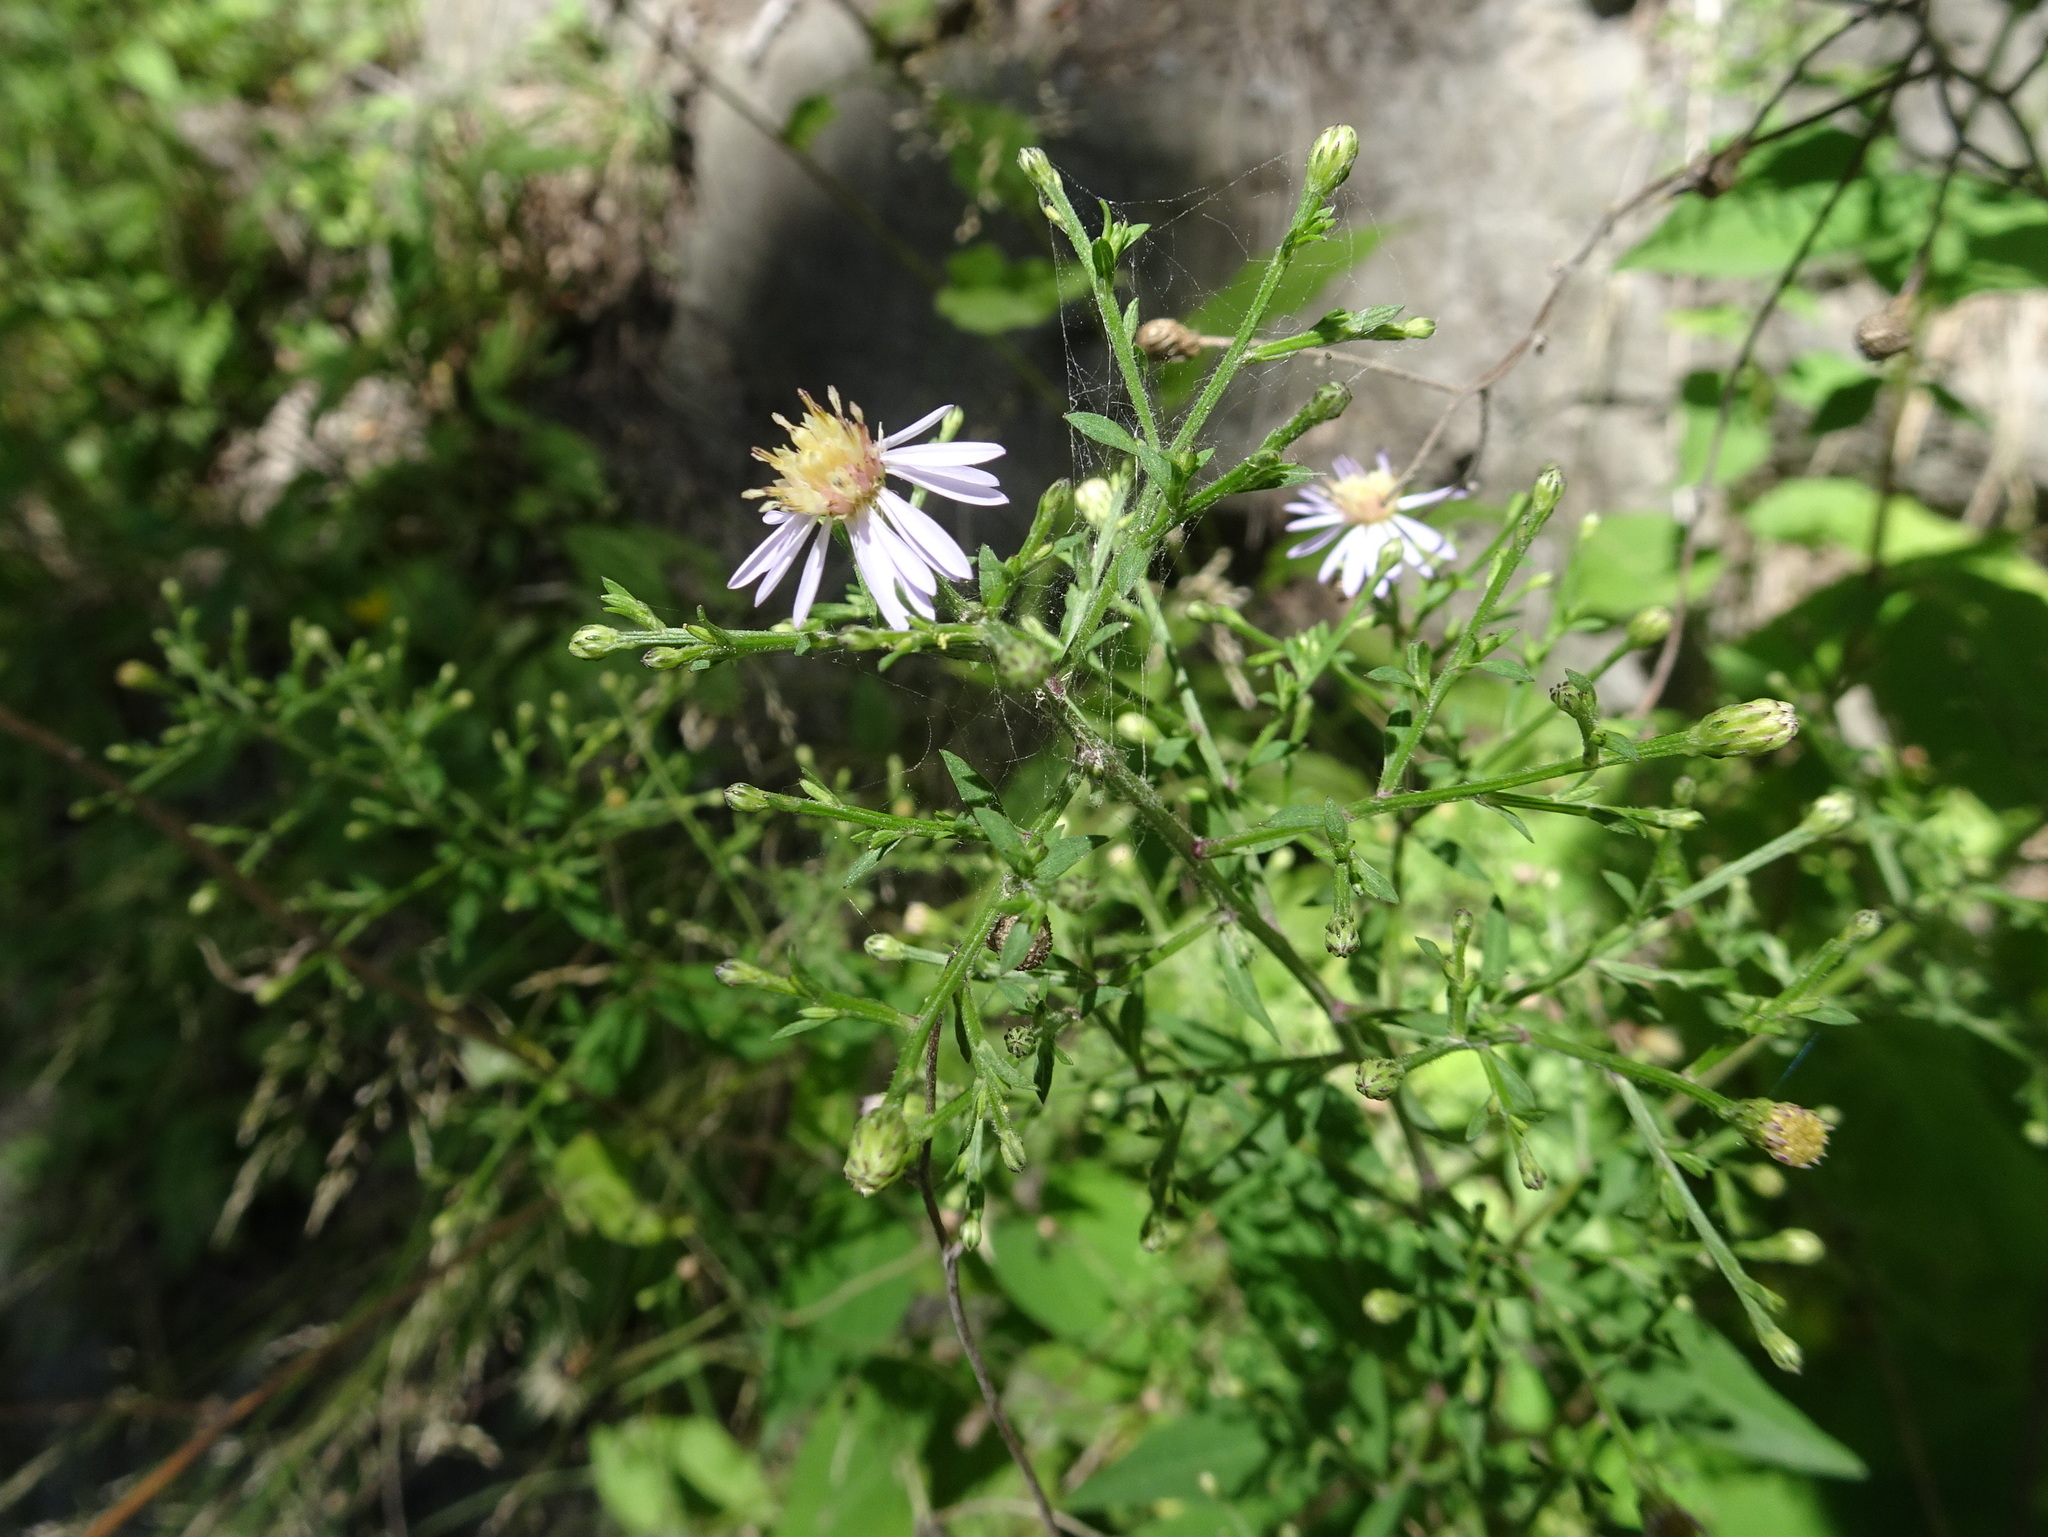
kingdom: Plantae
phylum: Tracheophyta
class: Magnoliopsida
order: Asterales
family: Asteraceae
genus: Symphyotrichum
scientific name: Symphyotrichum cordifolium
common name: Beeweed
